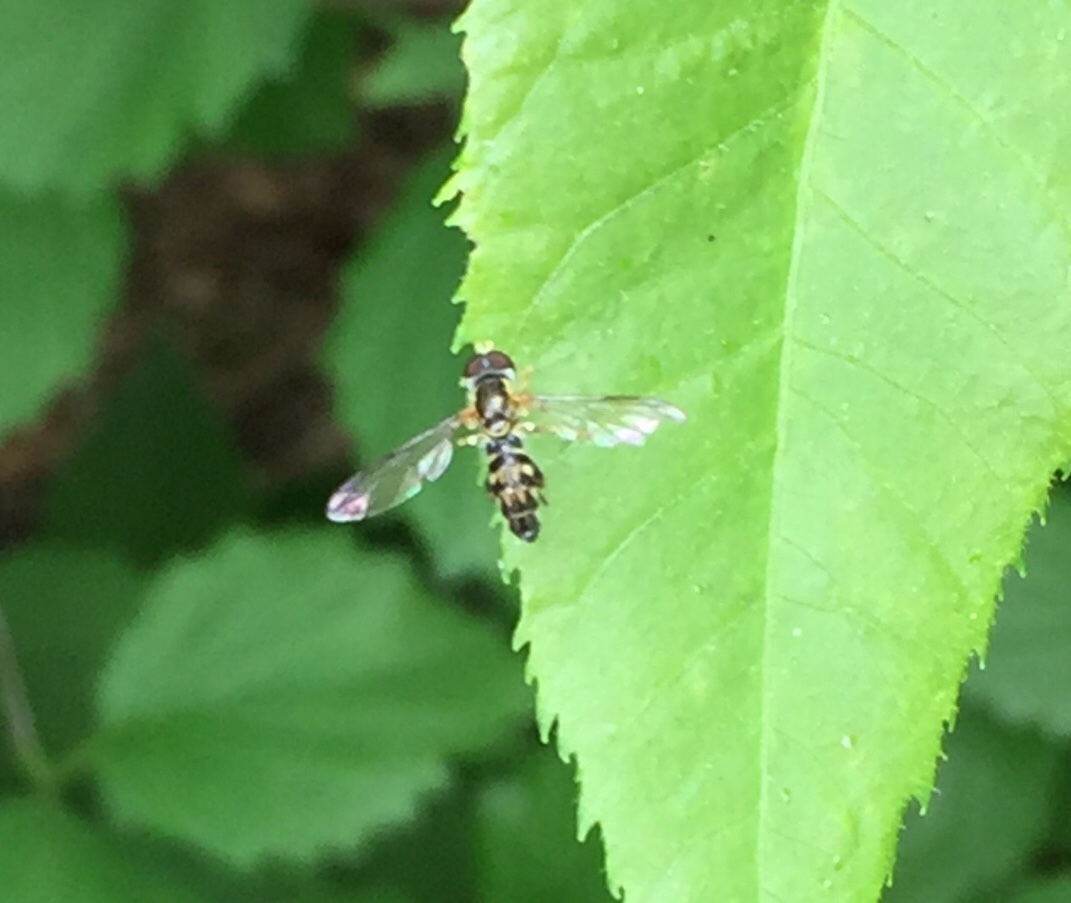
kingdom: Animalia
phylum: Arthropoda
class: Insecta
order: Diptera
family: Syrphidae
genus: Toxomerus
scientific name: Toxomerus geminatus
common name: Eastern calligrapher
